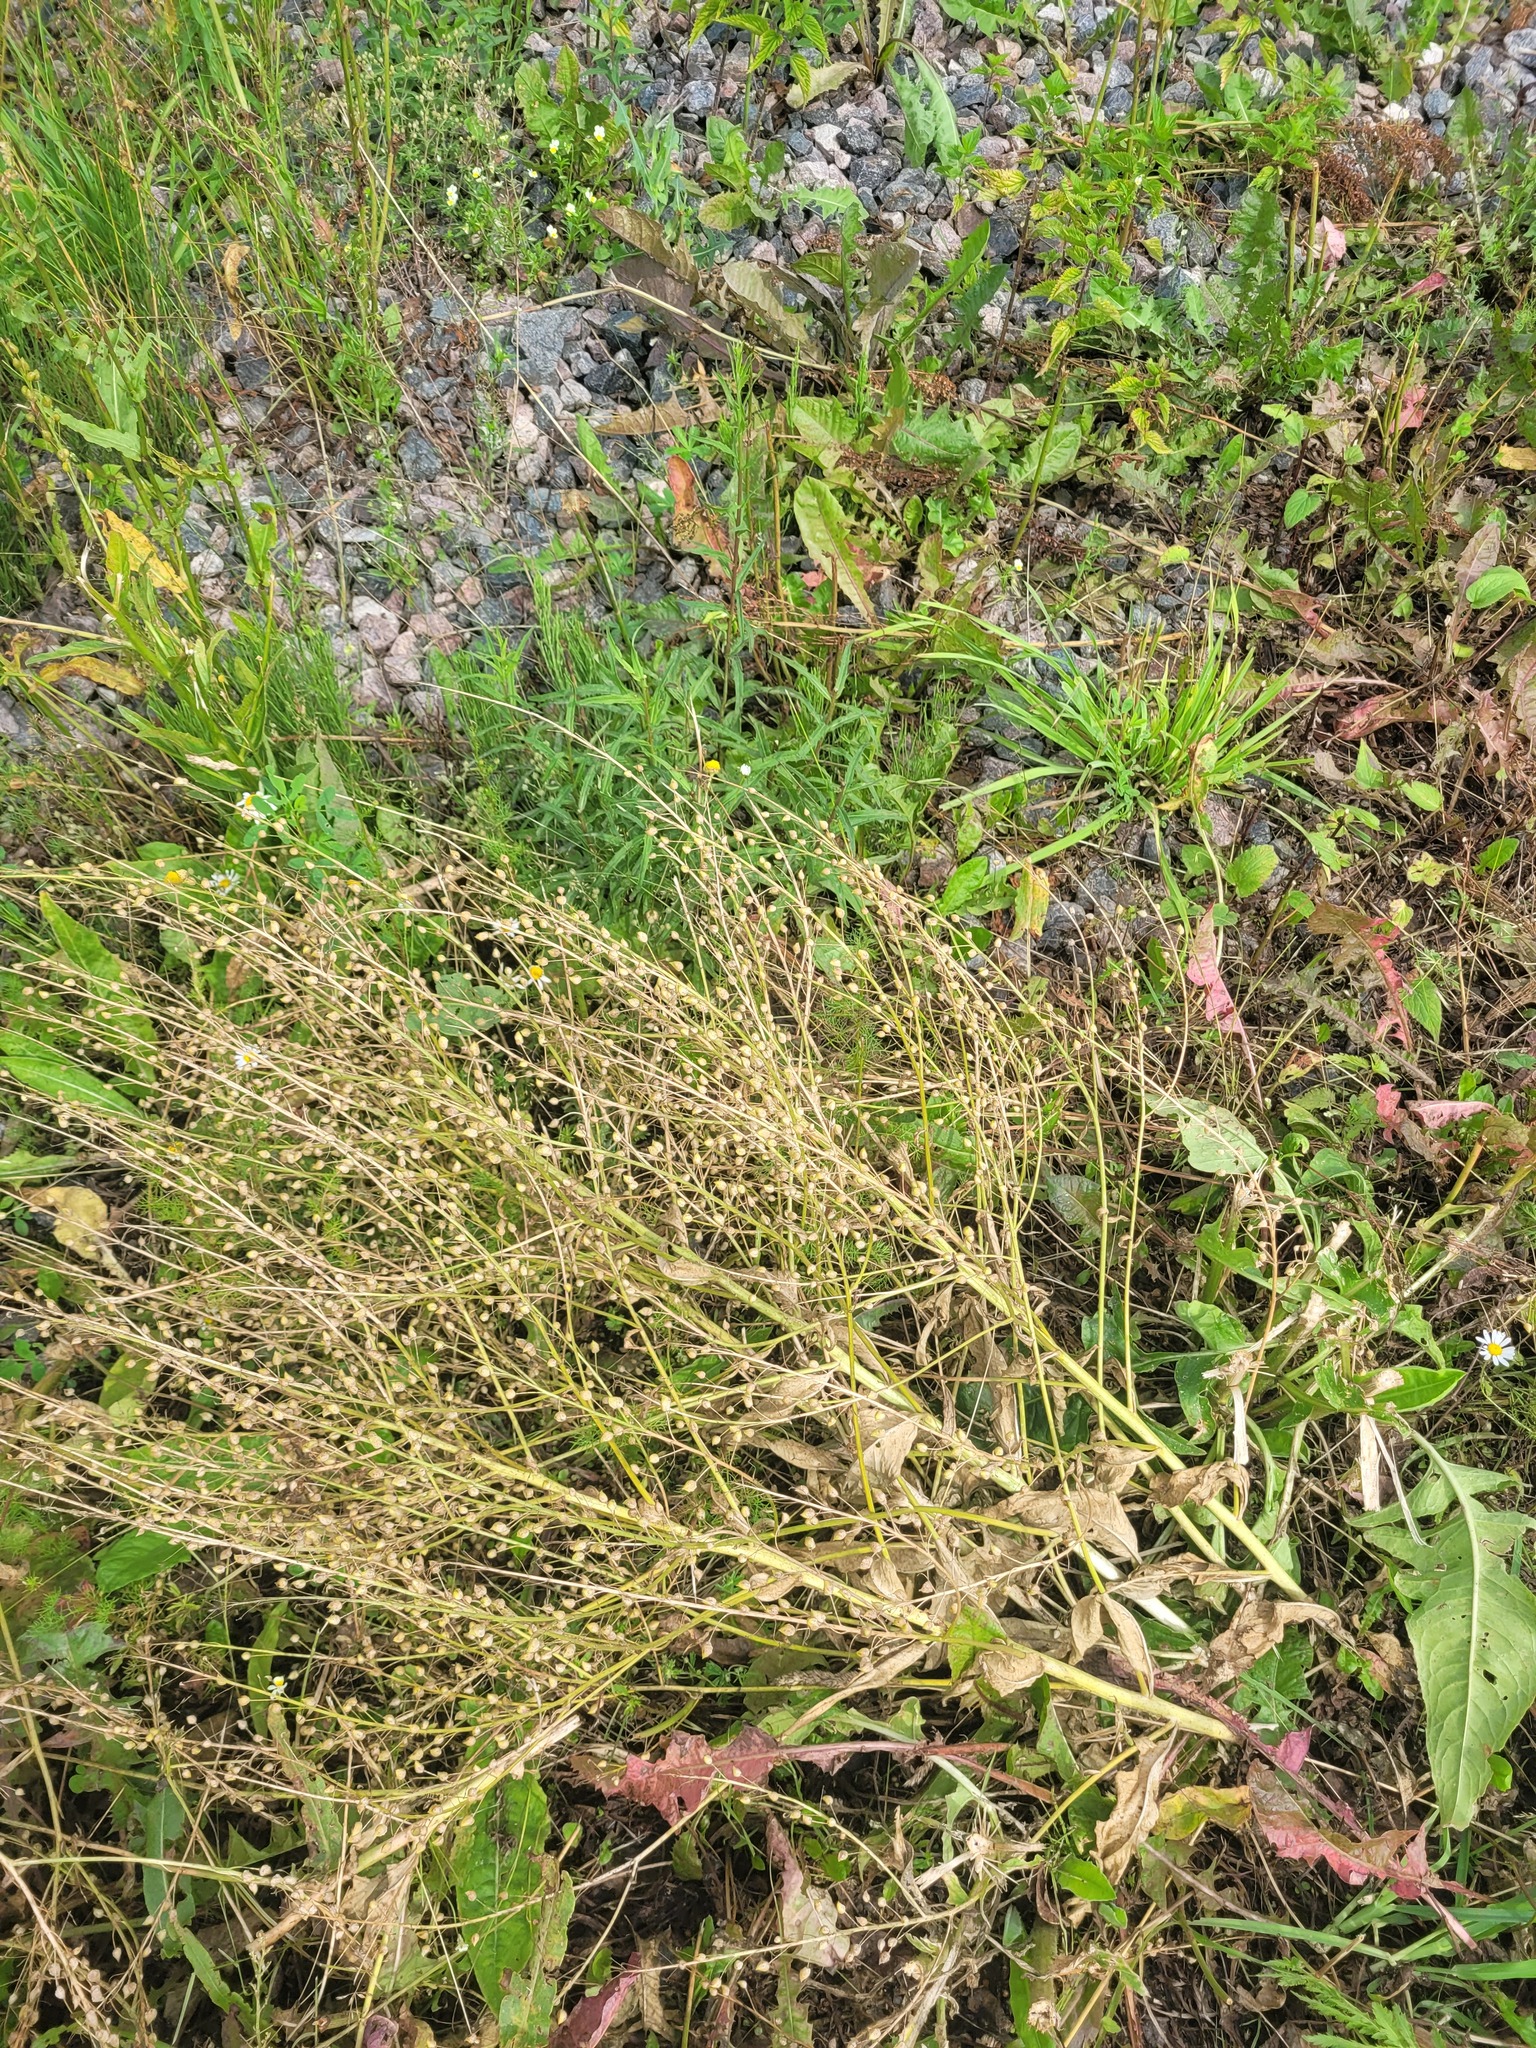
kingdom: Plantae
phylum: Tracheophyta
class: Magnoliopsida
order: Brassicales
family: Brassicaceae
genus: Bunias
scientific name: Bunias orientalis
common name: Warty-cabbage
